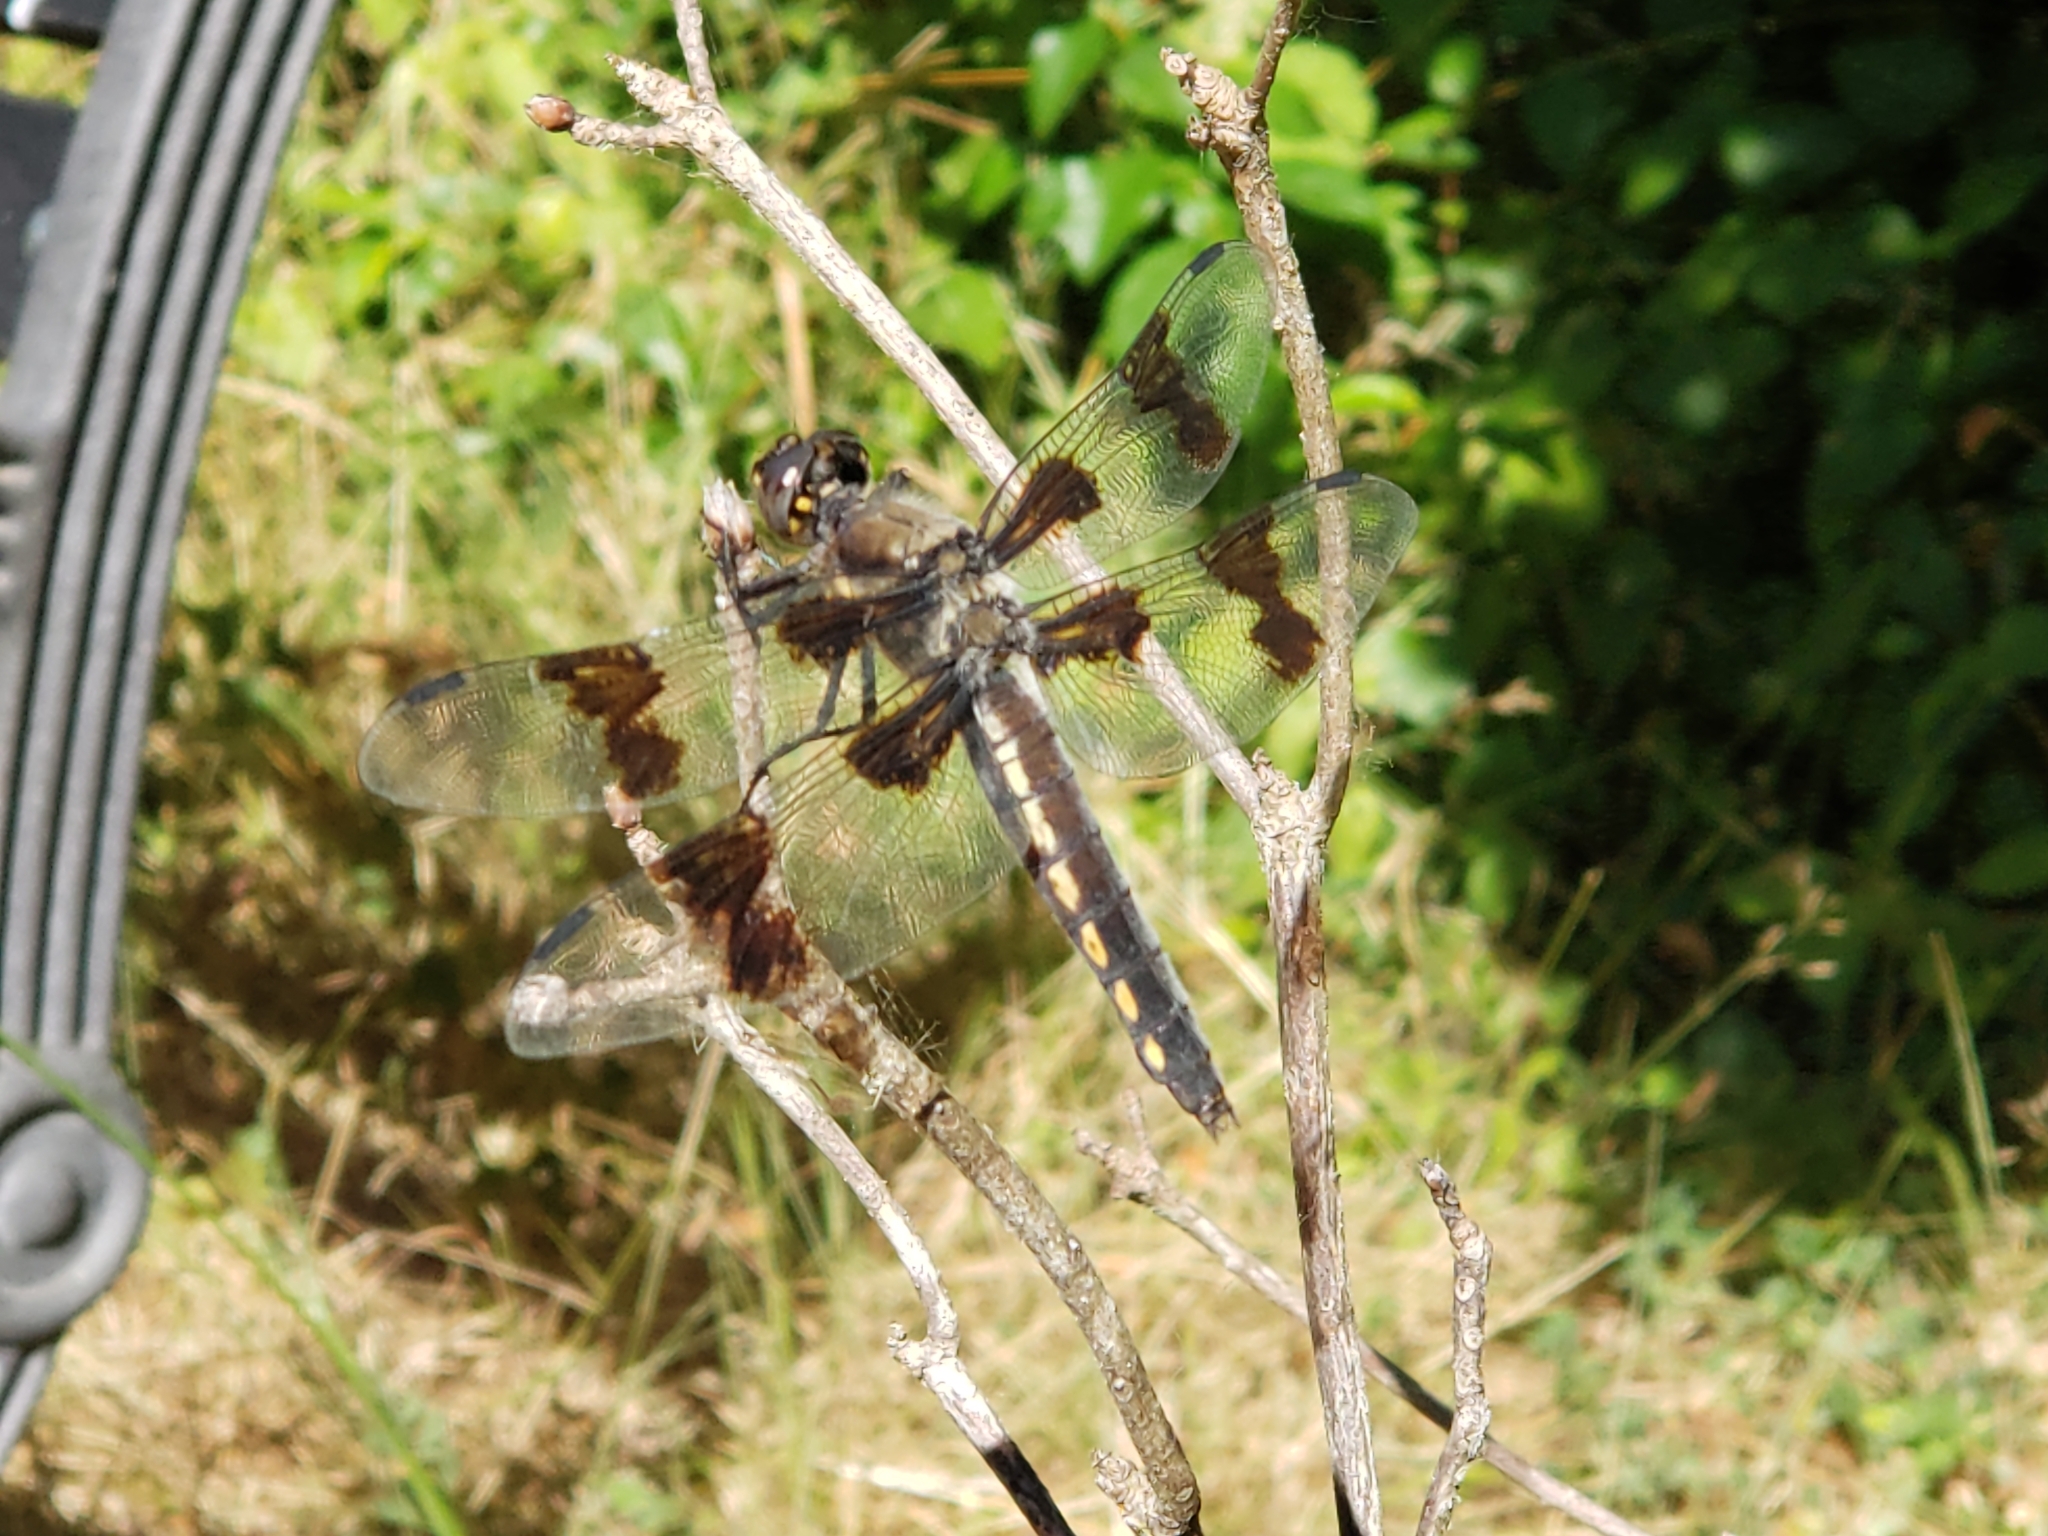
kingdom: Animalia
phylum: Arthropoda
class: Insecta
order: Odonata
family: Libellulidae
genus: Libellula
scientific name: Libellula forensis
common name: Eight-spotted skimmer
